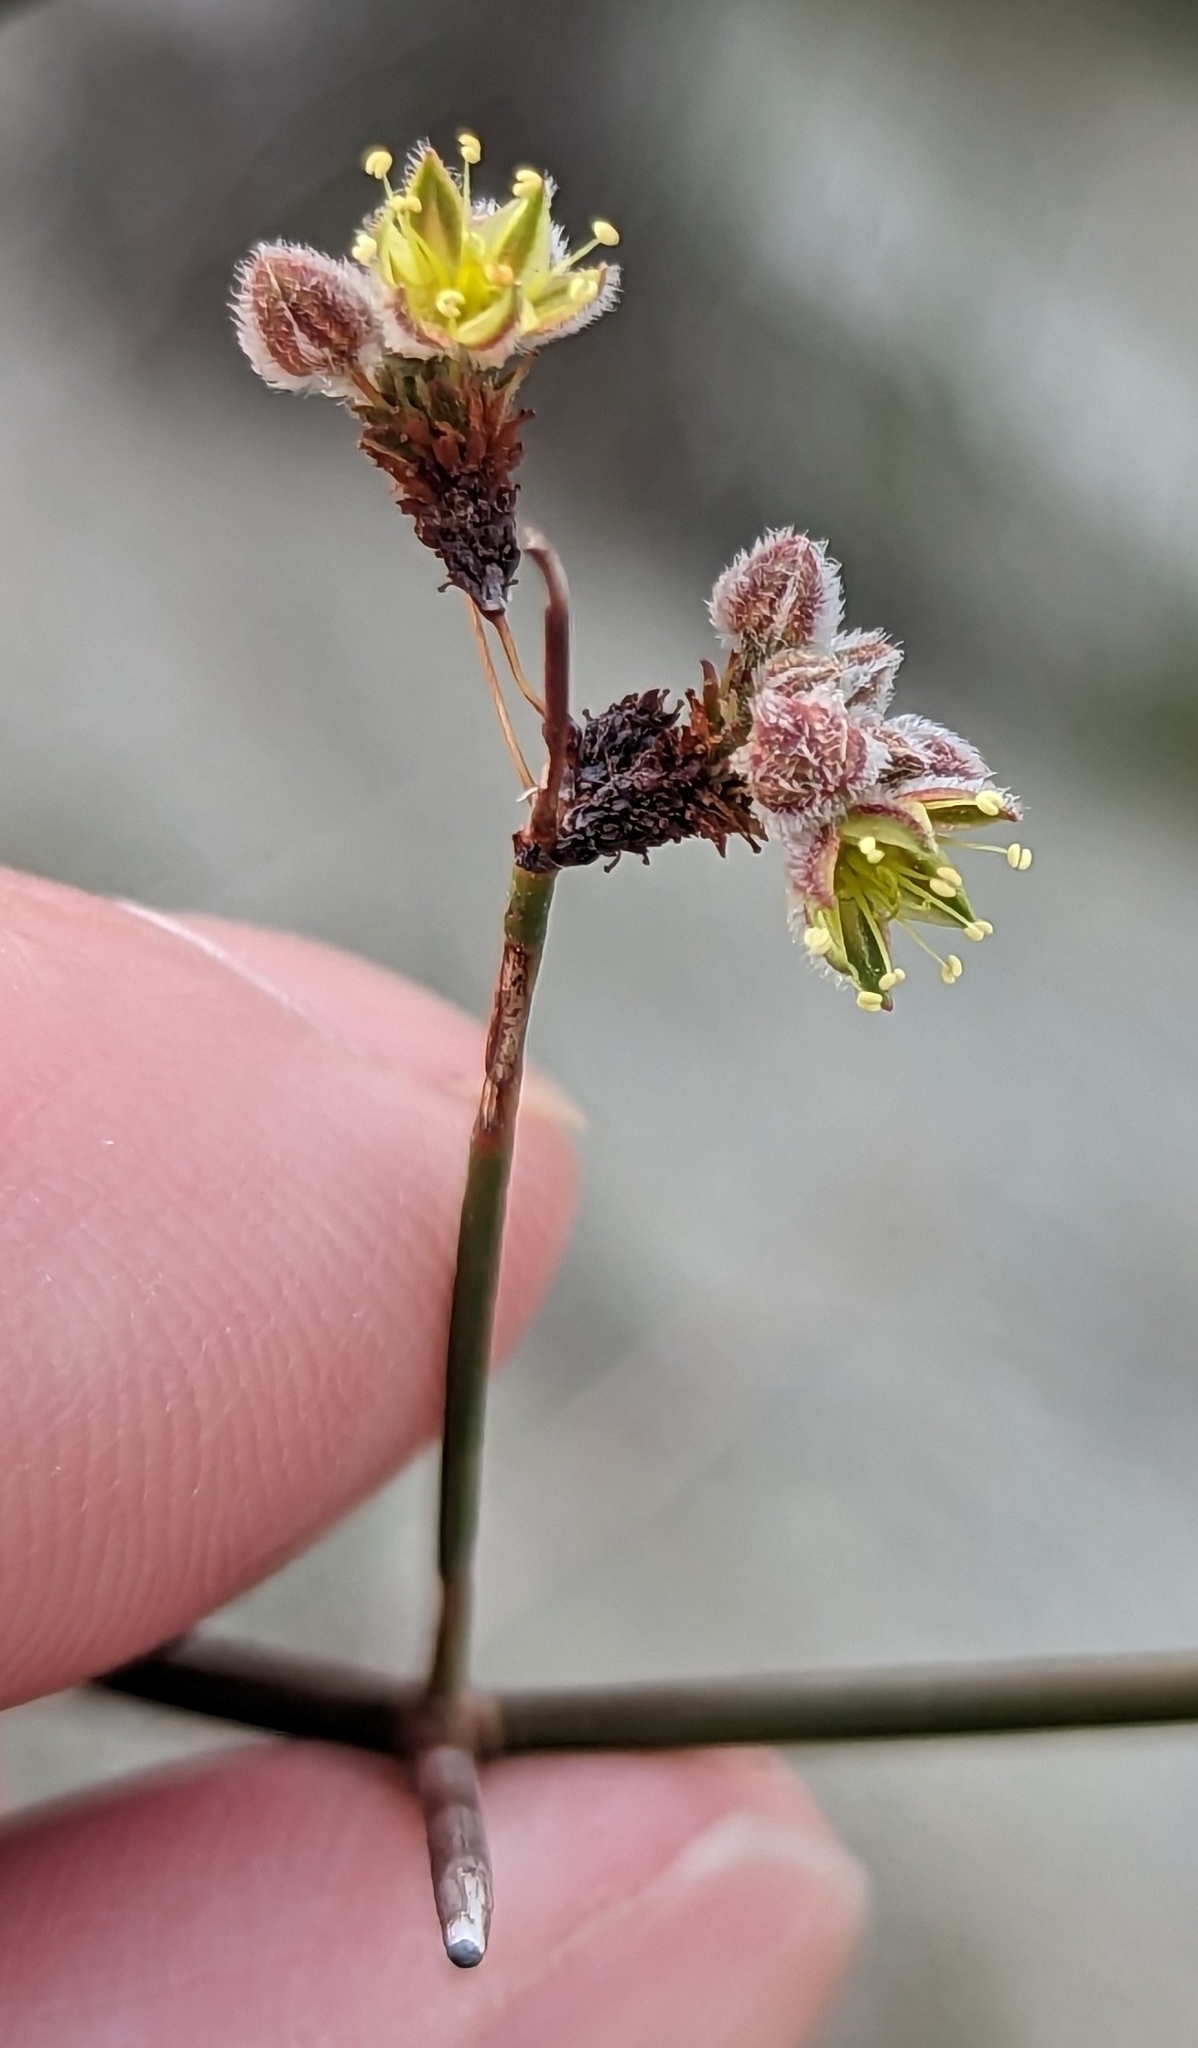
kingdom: Plantae
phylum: Tracheophyta
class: Magnoliopsida
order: Caryophyllales
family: Polygonaceae
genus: Eriogonum
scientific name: Eriogonum inflatum
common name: Desert trumpet
